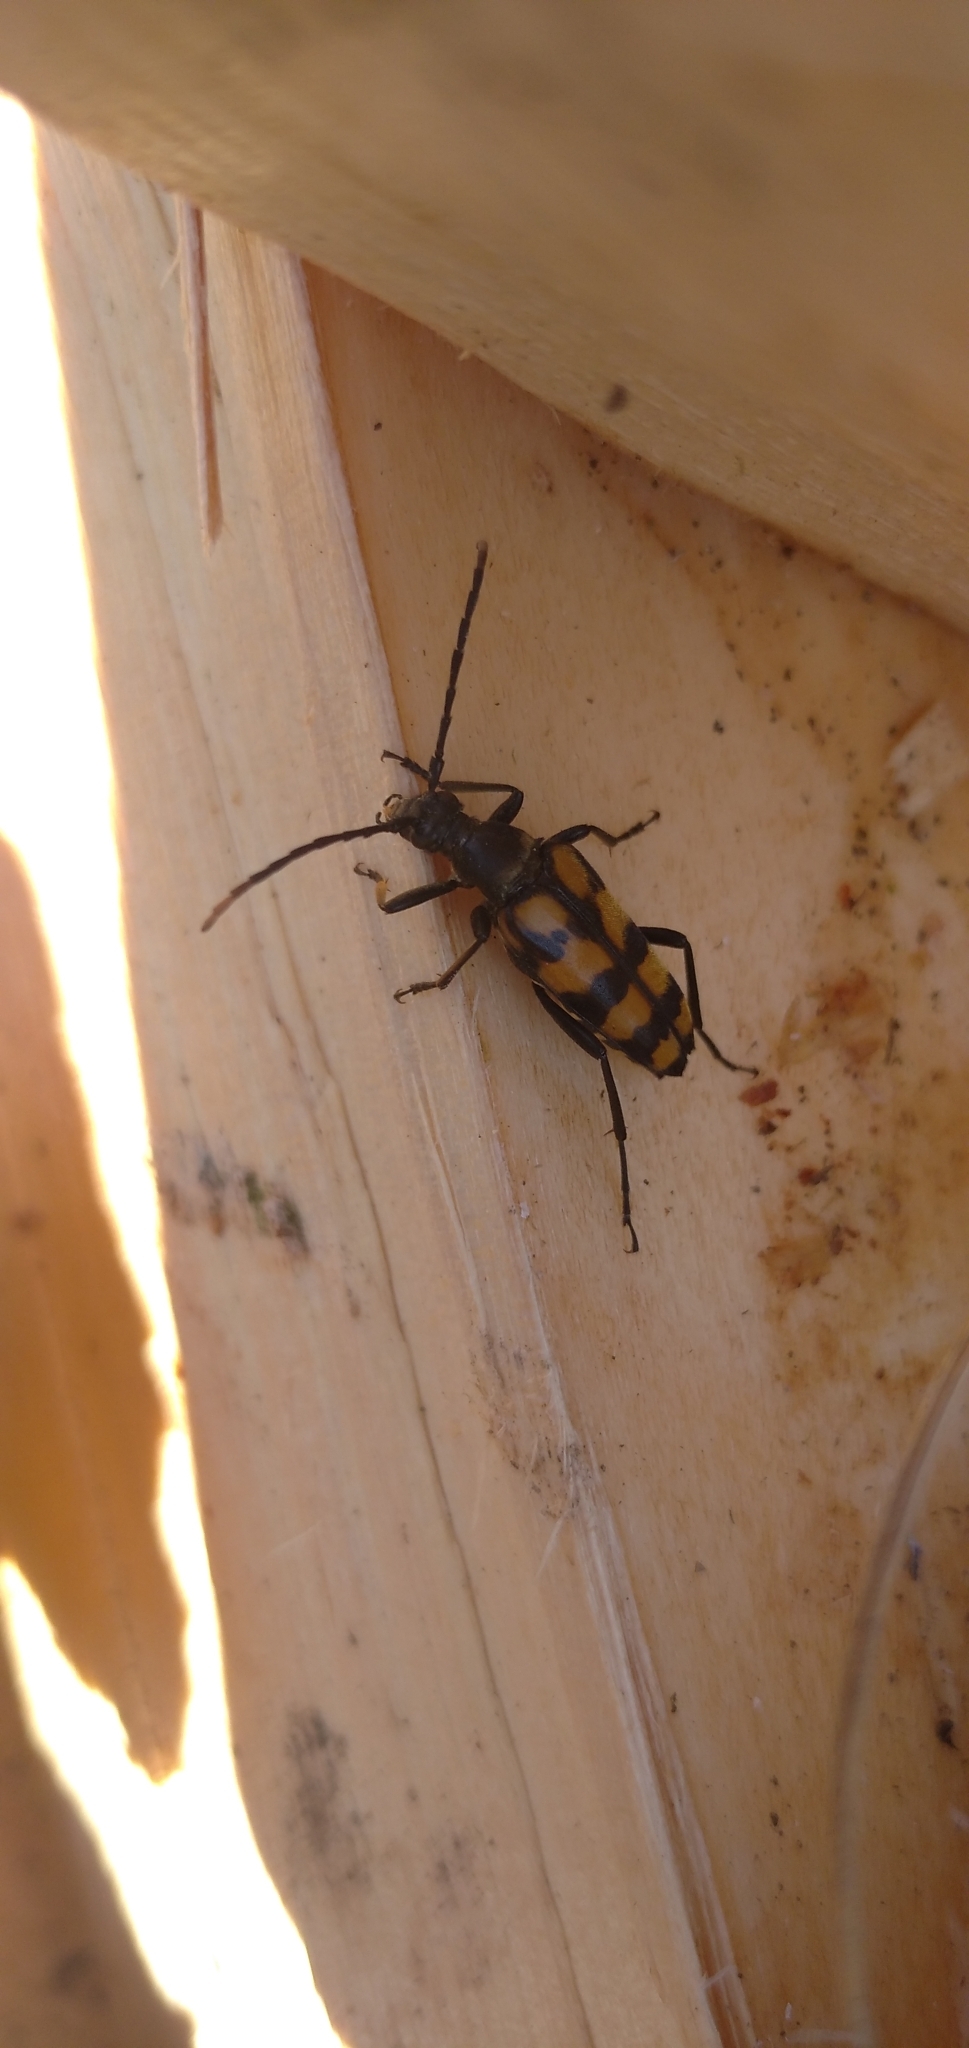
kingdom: Animalia
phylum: Arthropoda
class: Insecta
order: Coleoptera
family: Cerambycidae
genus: Leptura
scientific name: Leptura quadrifasciata
